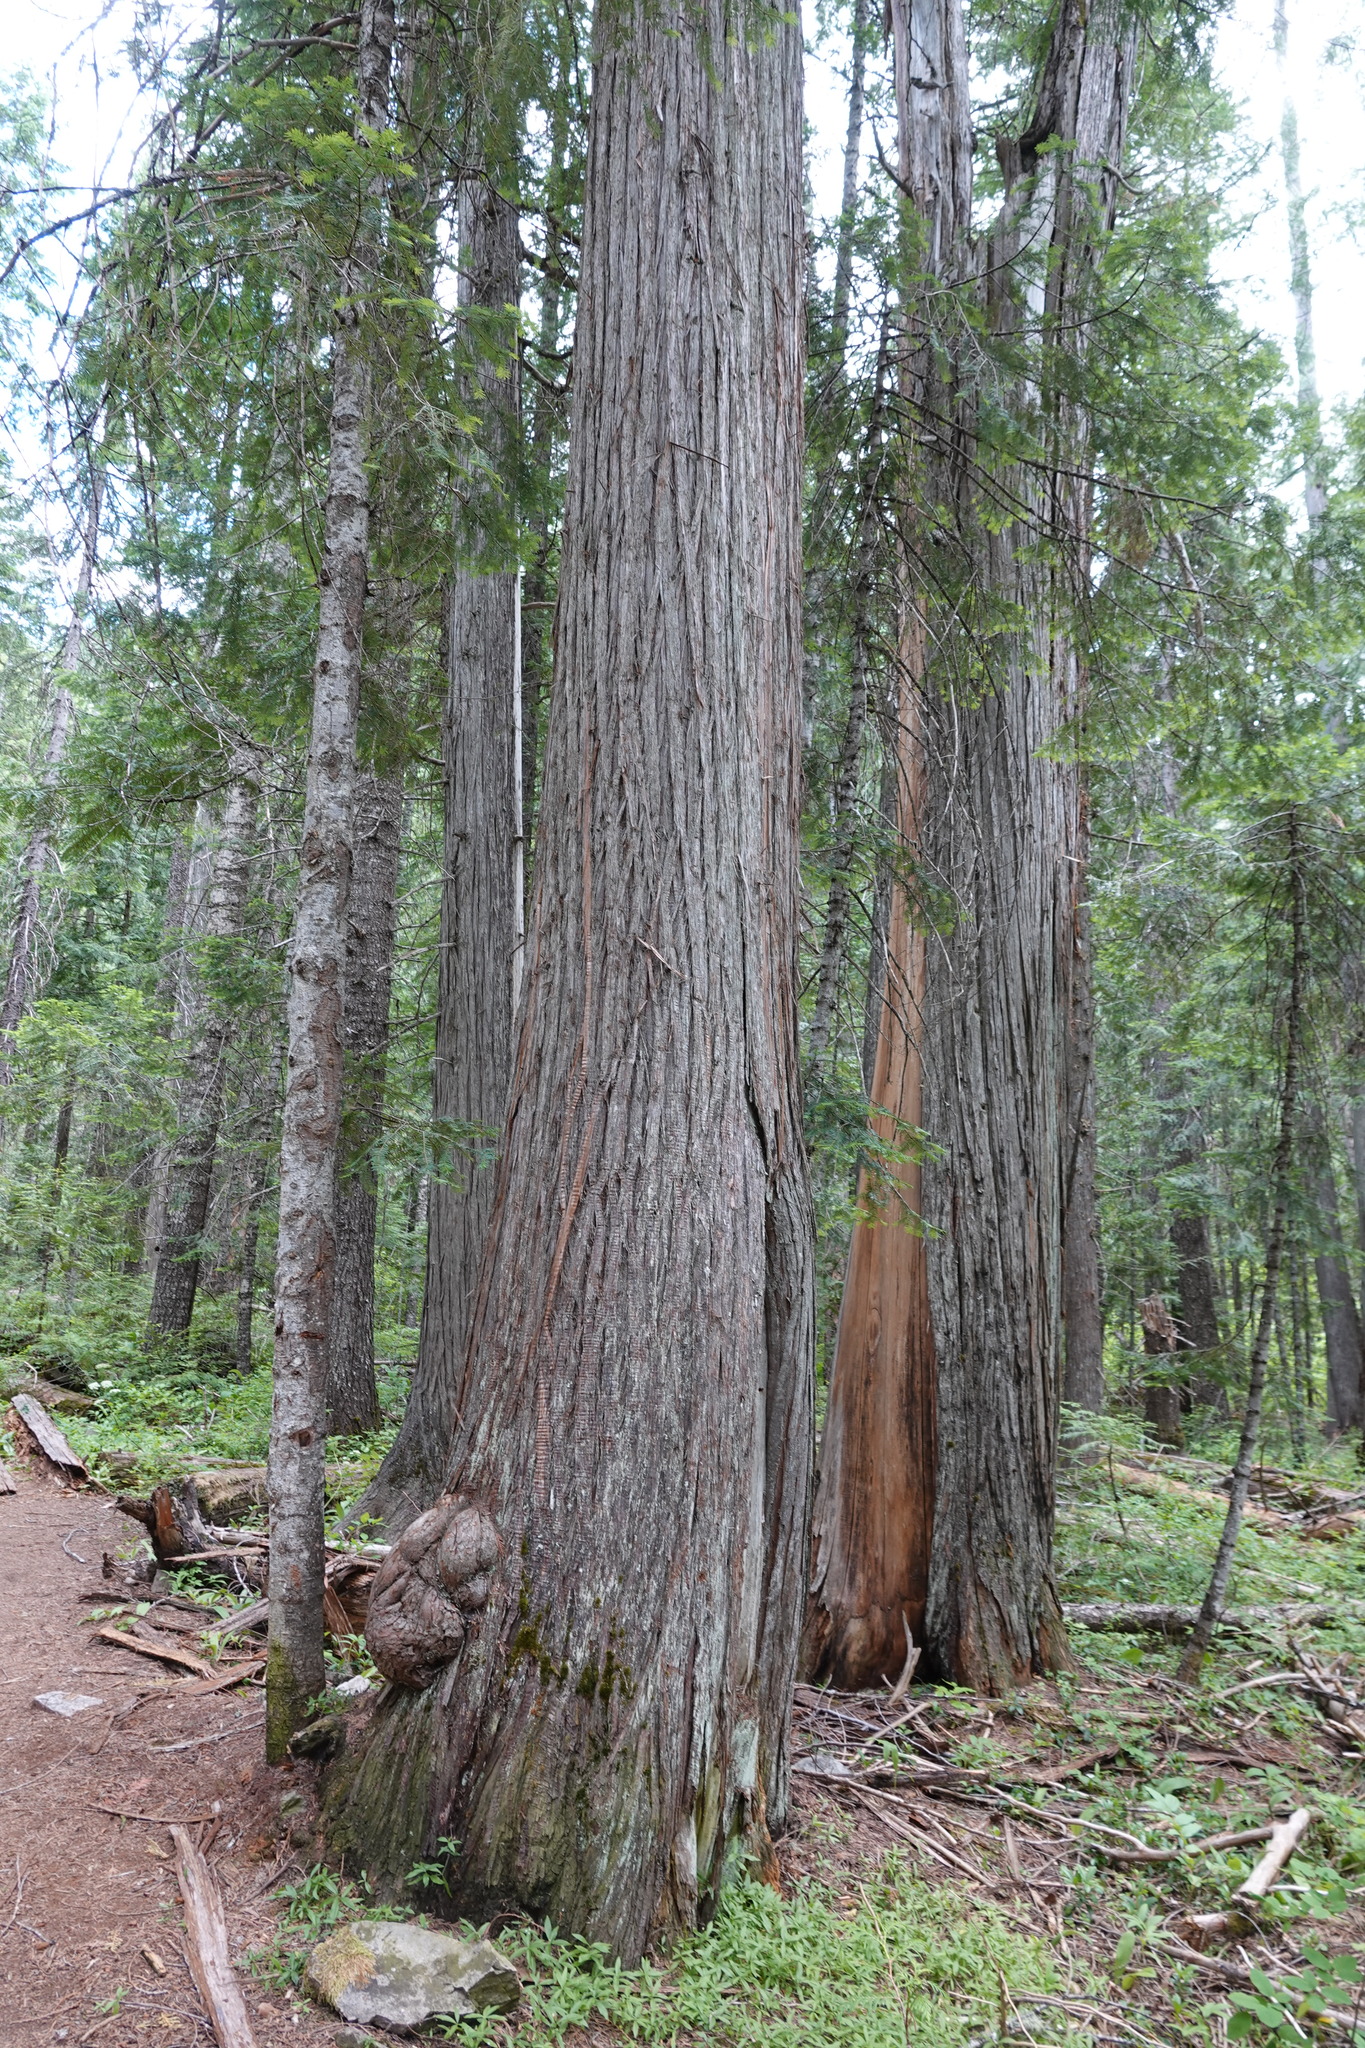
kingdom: Plantae
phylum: Tracheophyta
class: Pinopsida
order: Pinales
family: Cupressaceae
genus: Thuja
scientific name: Thuja plicata
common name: Western red-cedar
